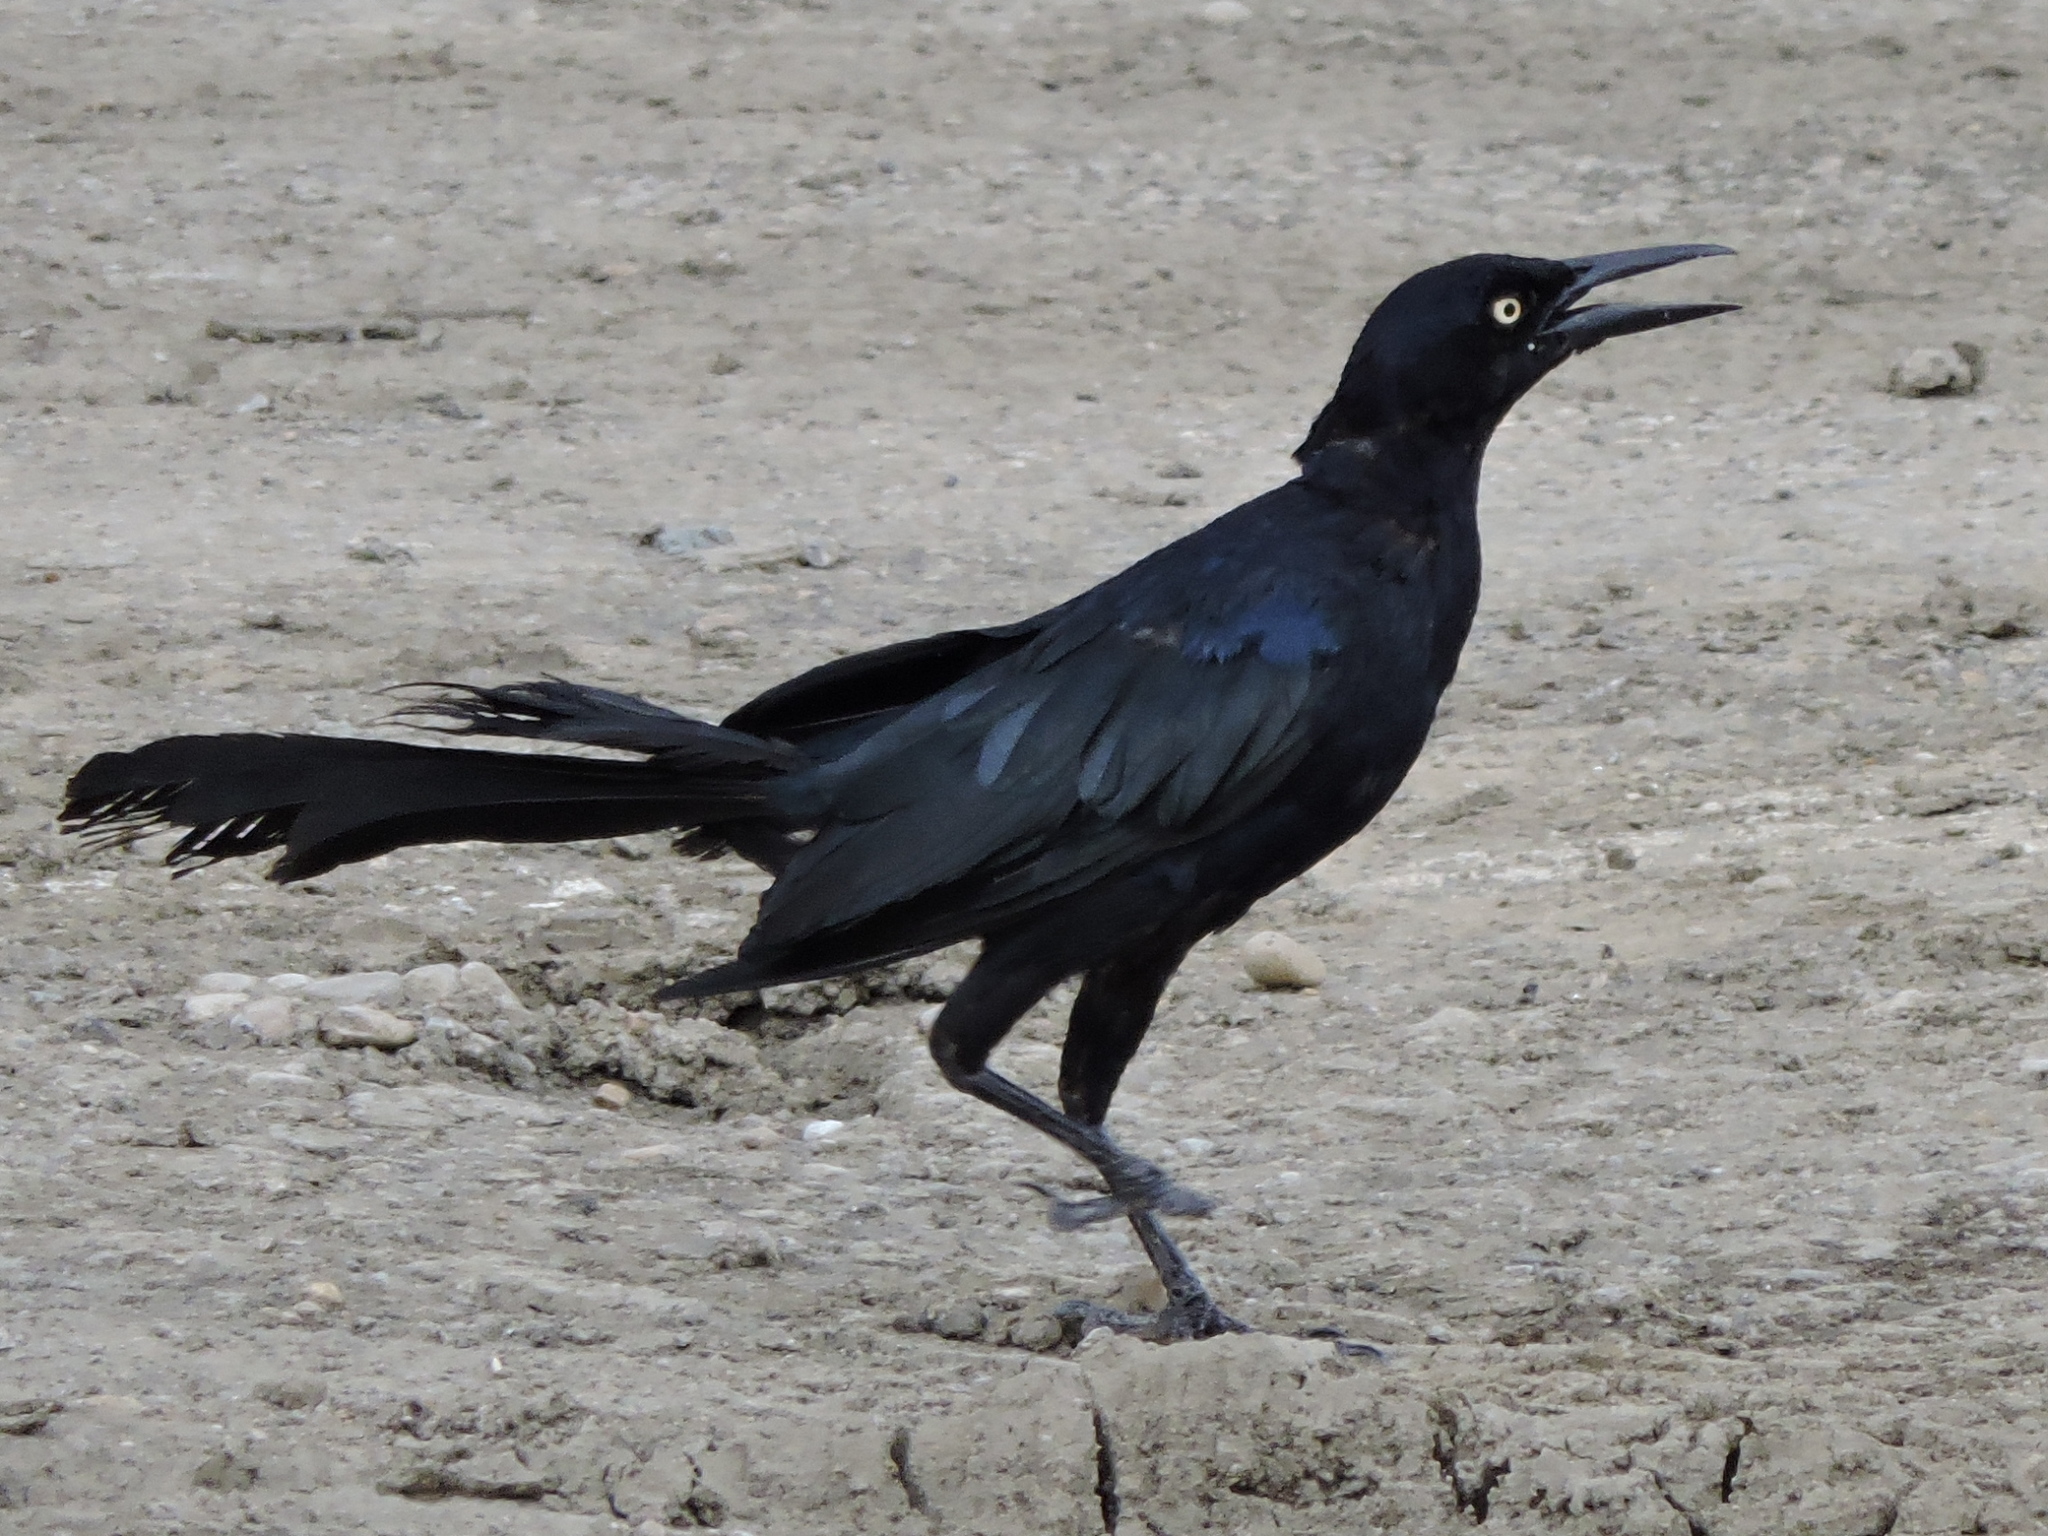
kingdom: Animalia
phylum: Chordata
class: Aves
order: Passeriformes
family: Icteridae
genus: Quiscalus
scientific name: Quiscalus mexicanus
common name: Great-tailed grackle
